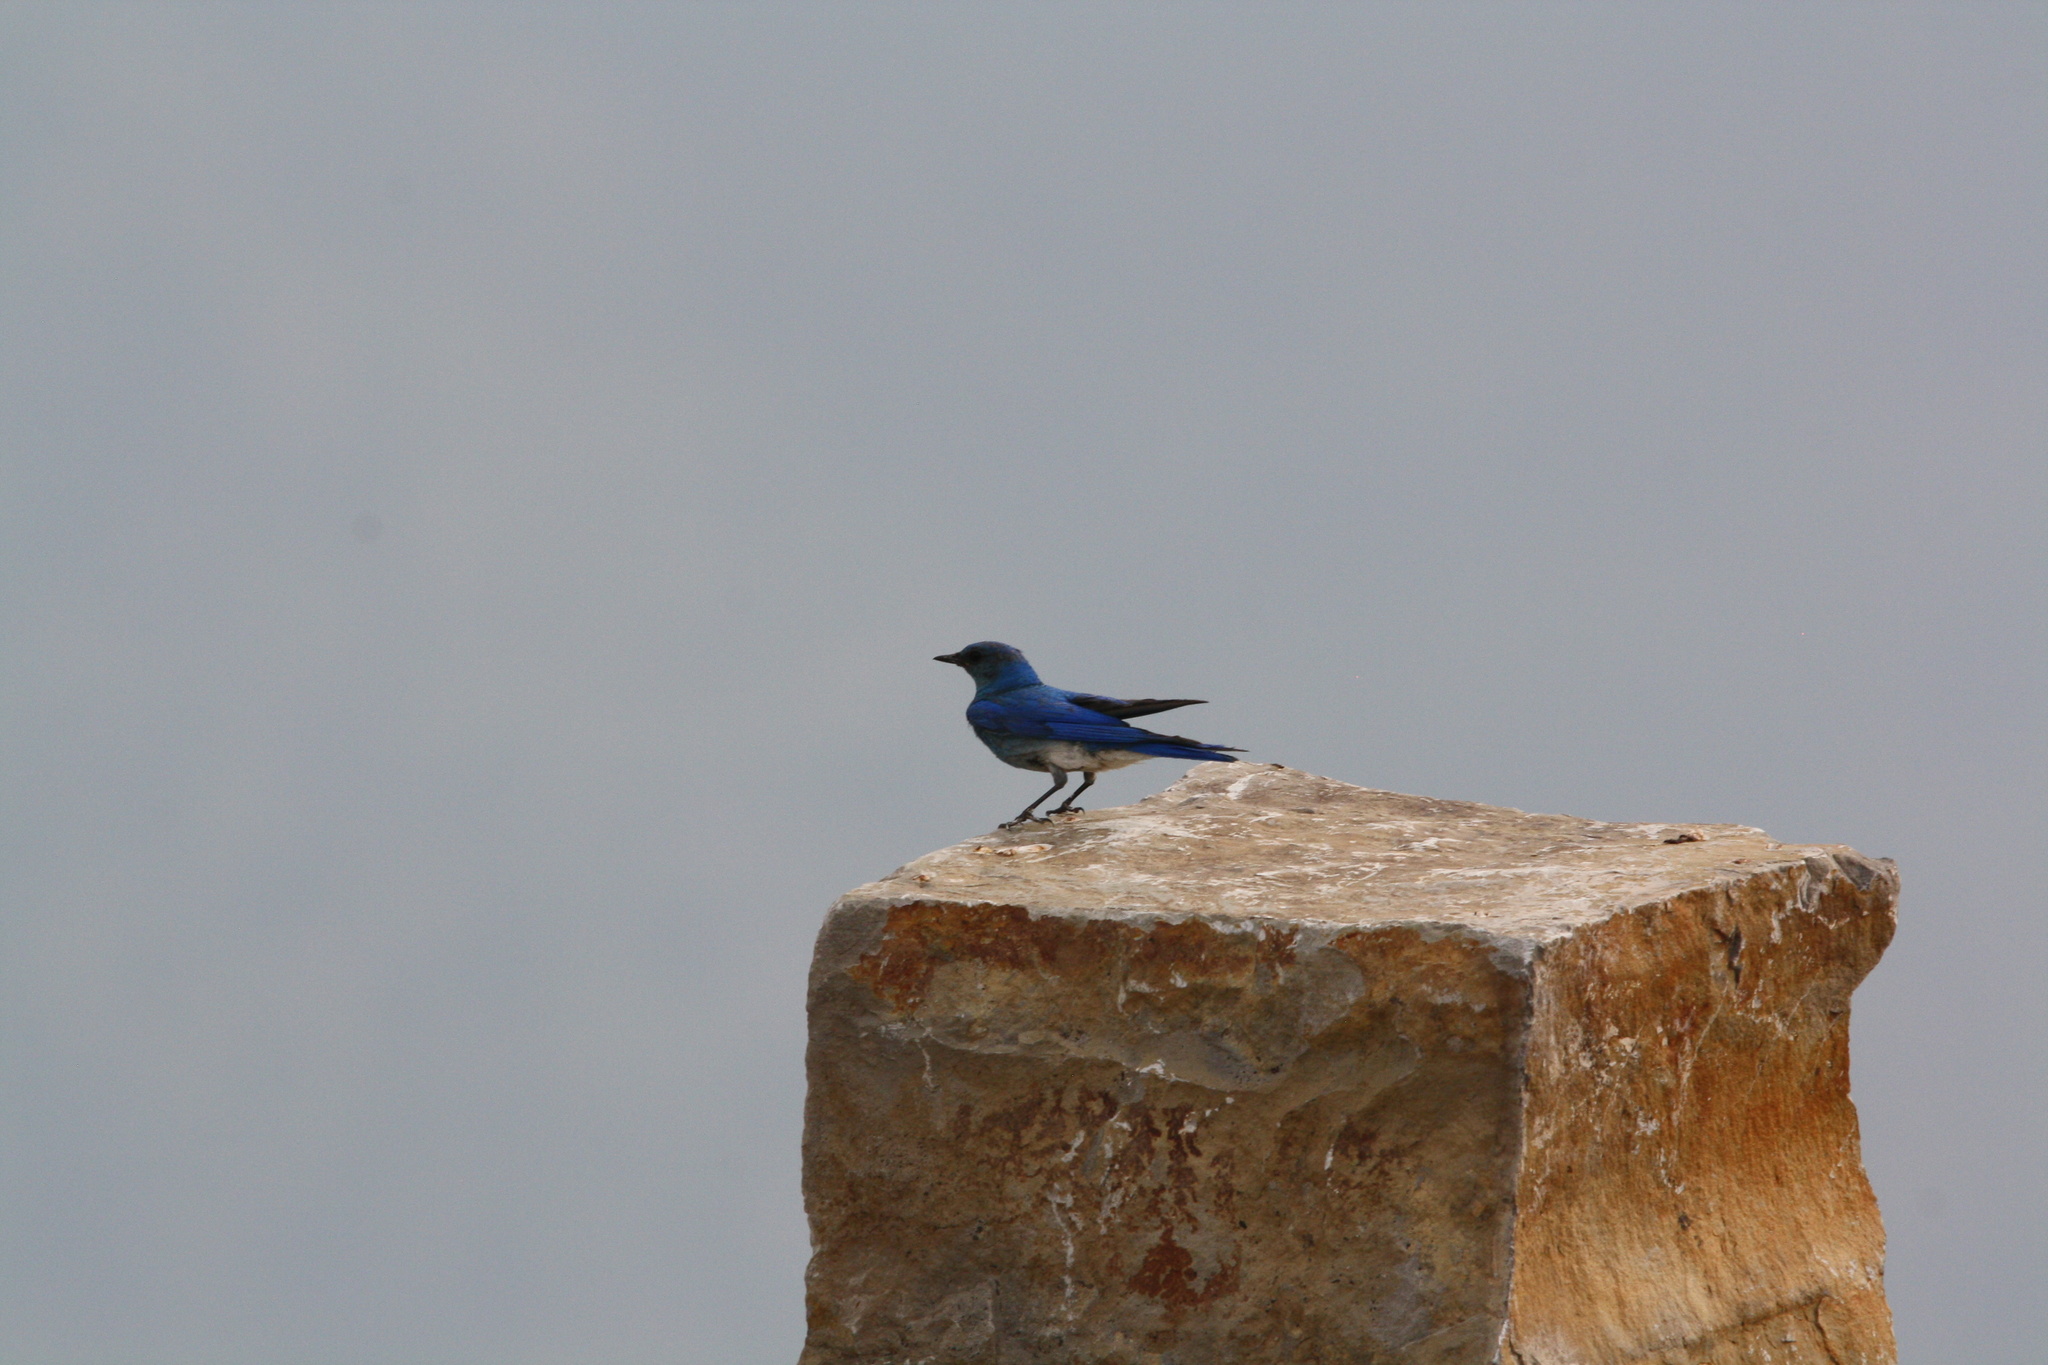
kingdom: Animalia
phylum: Chordata
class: Aves
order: Passeriformes
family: Turdidae
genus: Sialia
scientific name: Sialia currucoides
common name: Mountain bluebird
